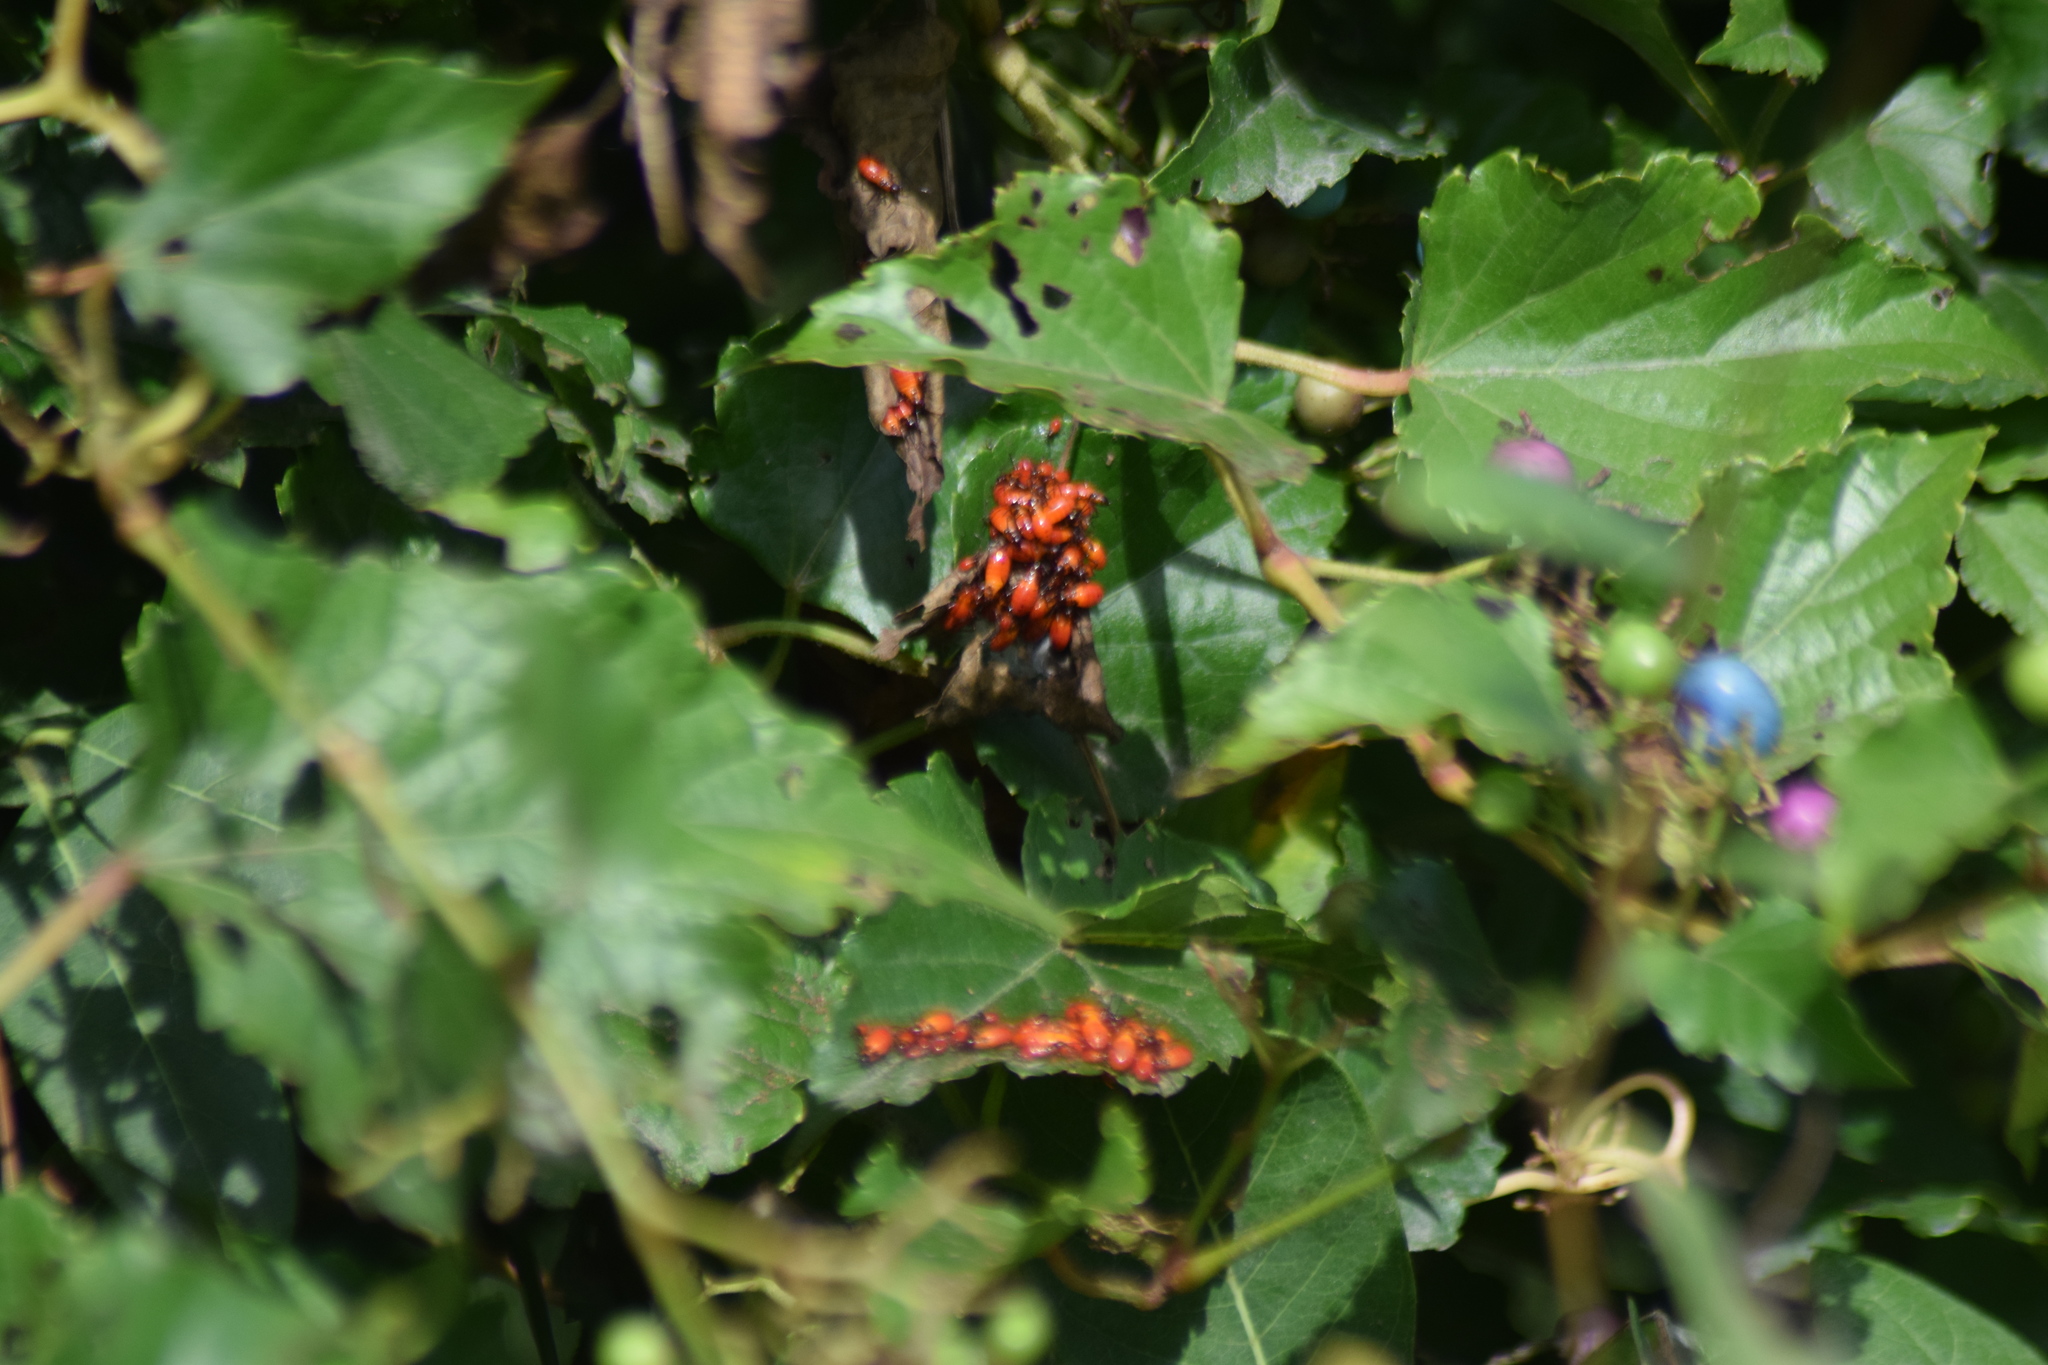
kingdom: Animalia
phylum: Arthropoda
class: Insecta
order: Hemiptera
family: Lygaeidae
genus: Oncopeltus
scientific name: Oncopeltus fasciatus
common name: Large milkweed bug
